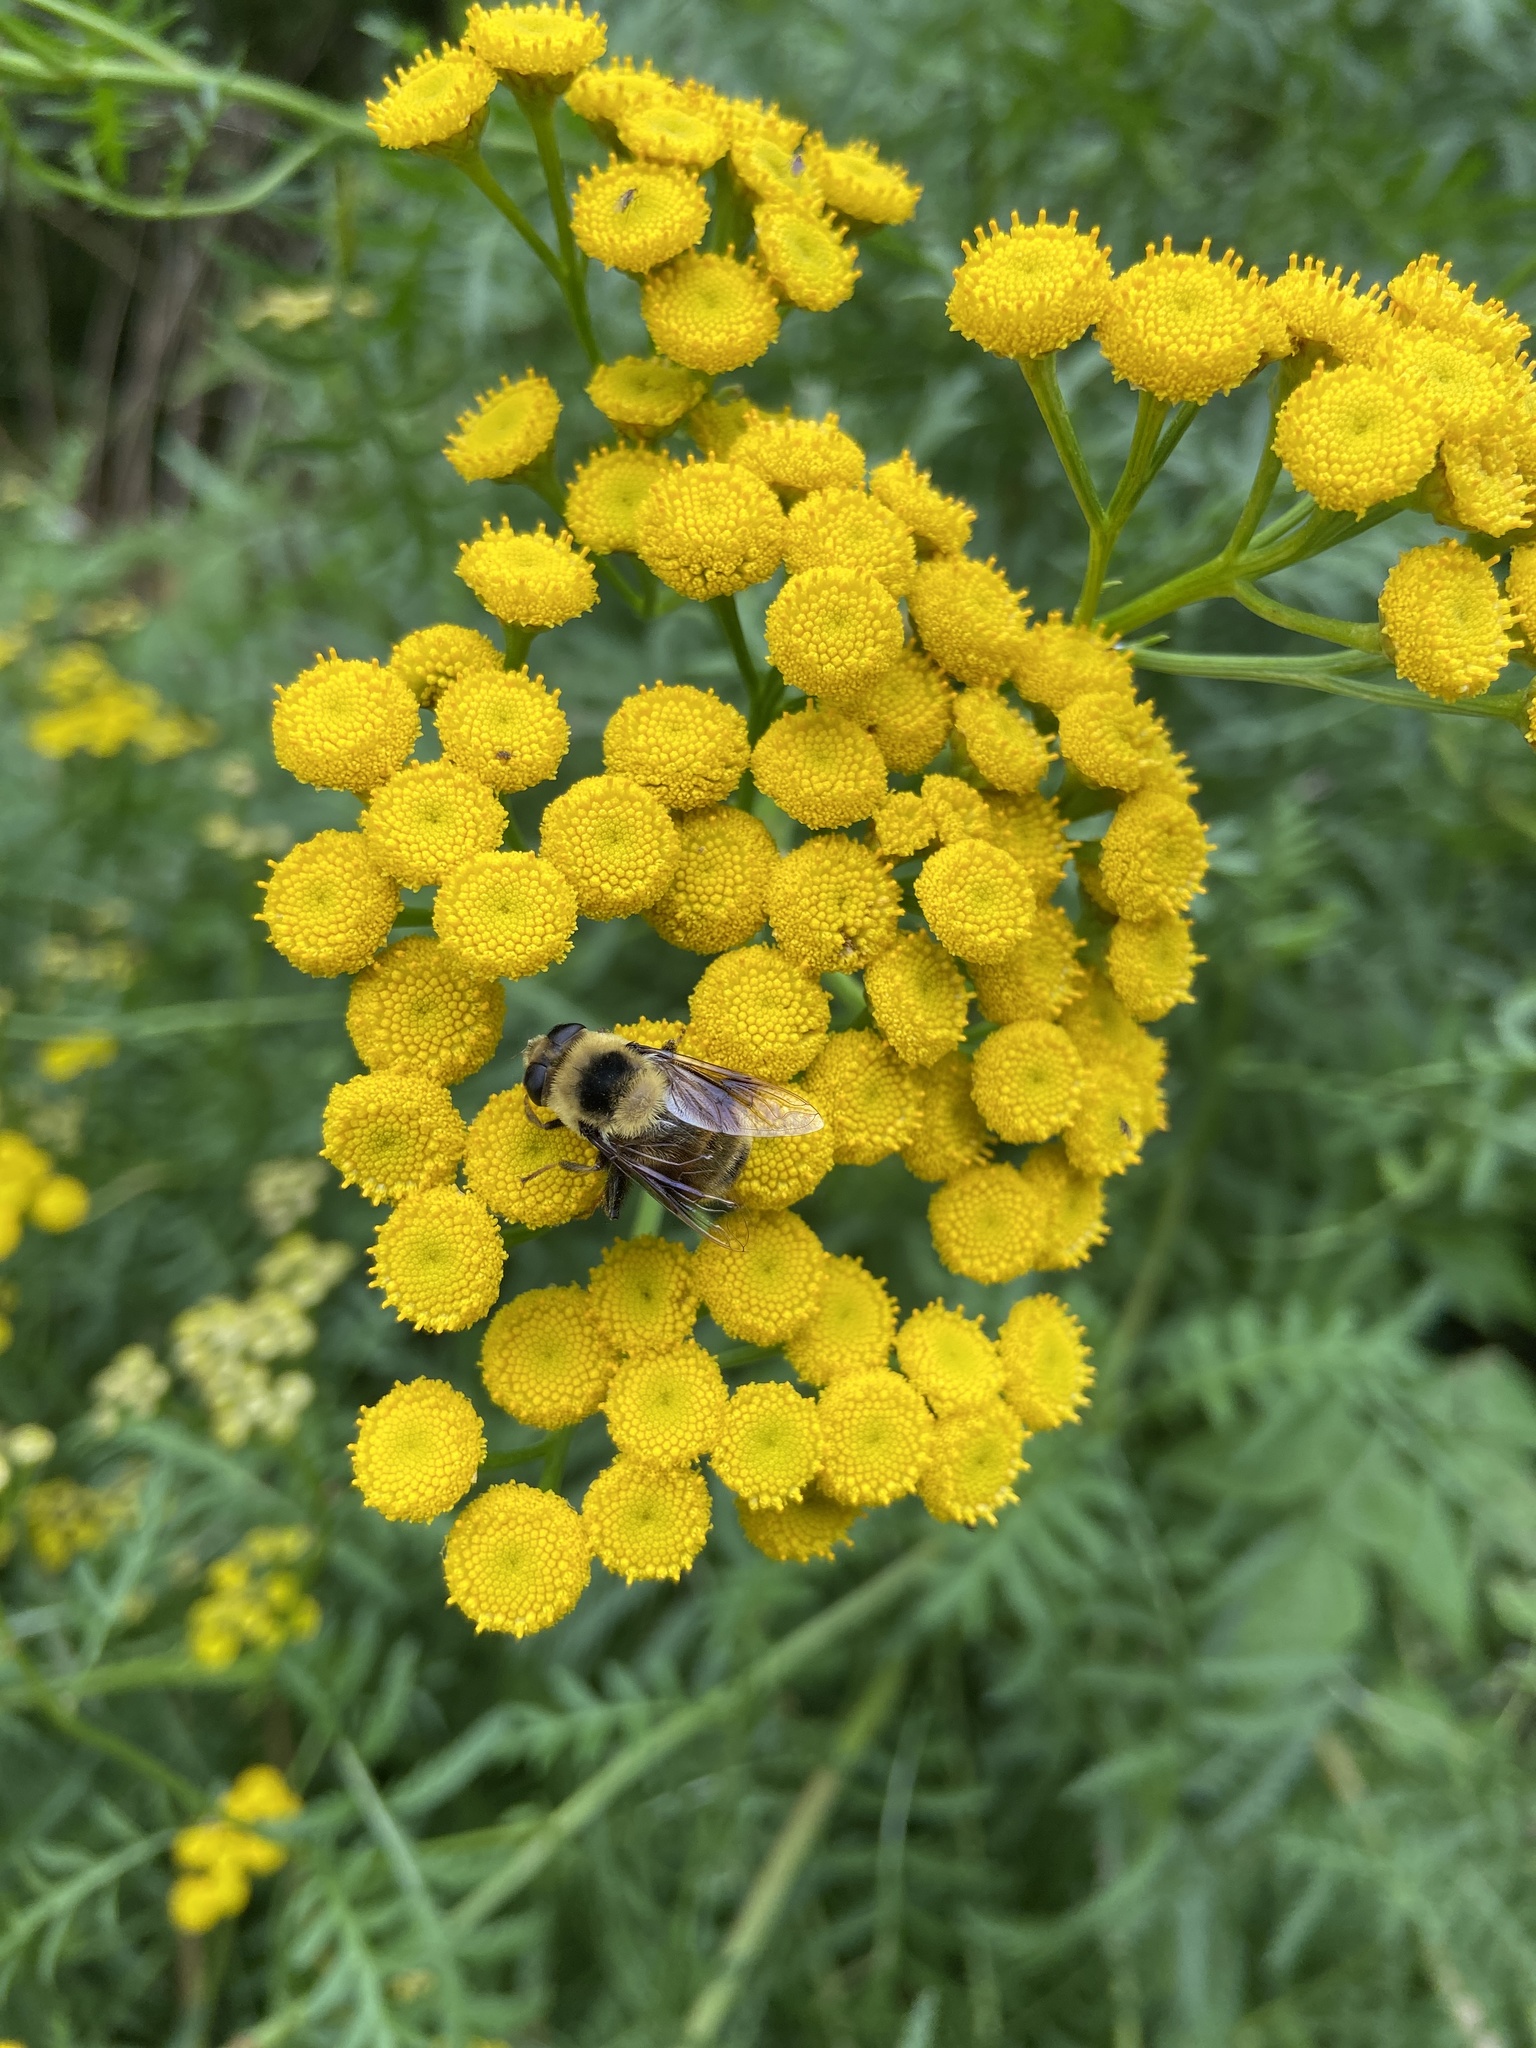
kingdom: Animalia
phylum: Arthropoda
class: Insecta
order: Diptera
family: Syrphidae
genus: Eristalis
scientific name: Eristalis flavipes
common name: Orange-legged drone fly
